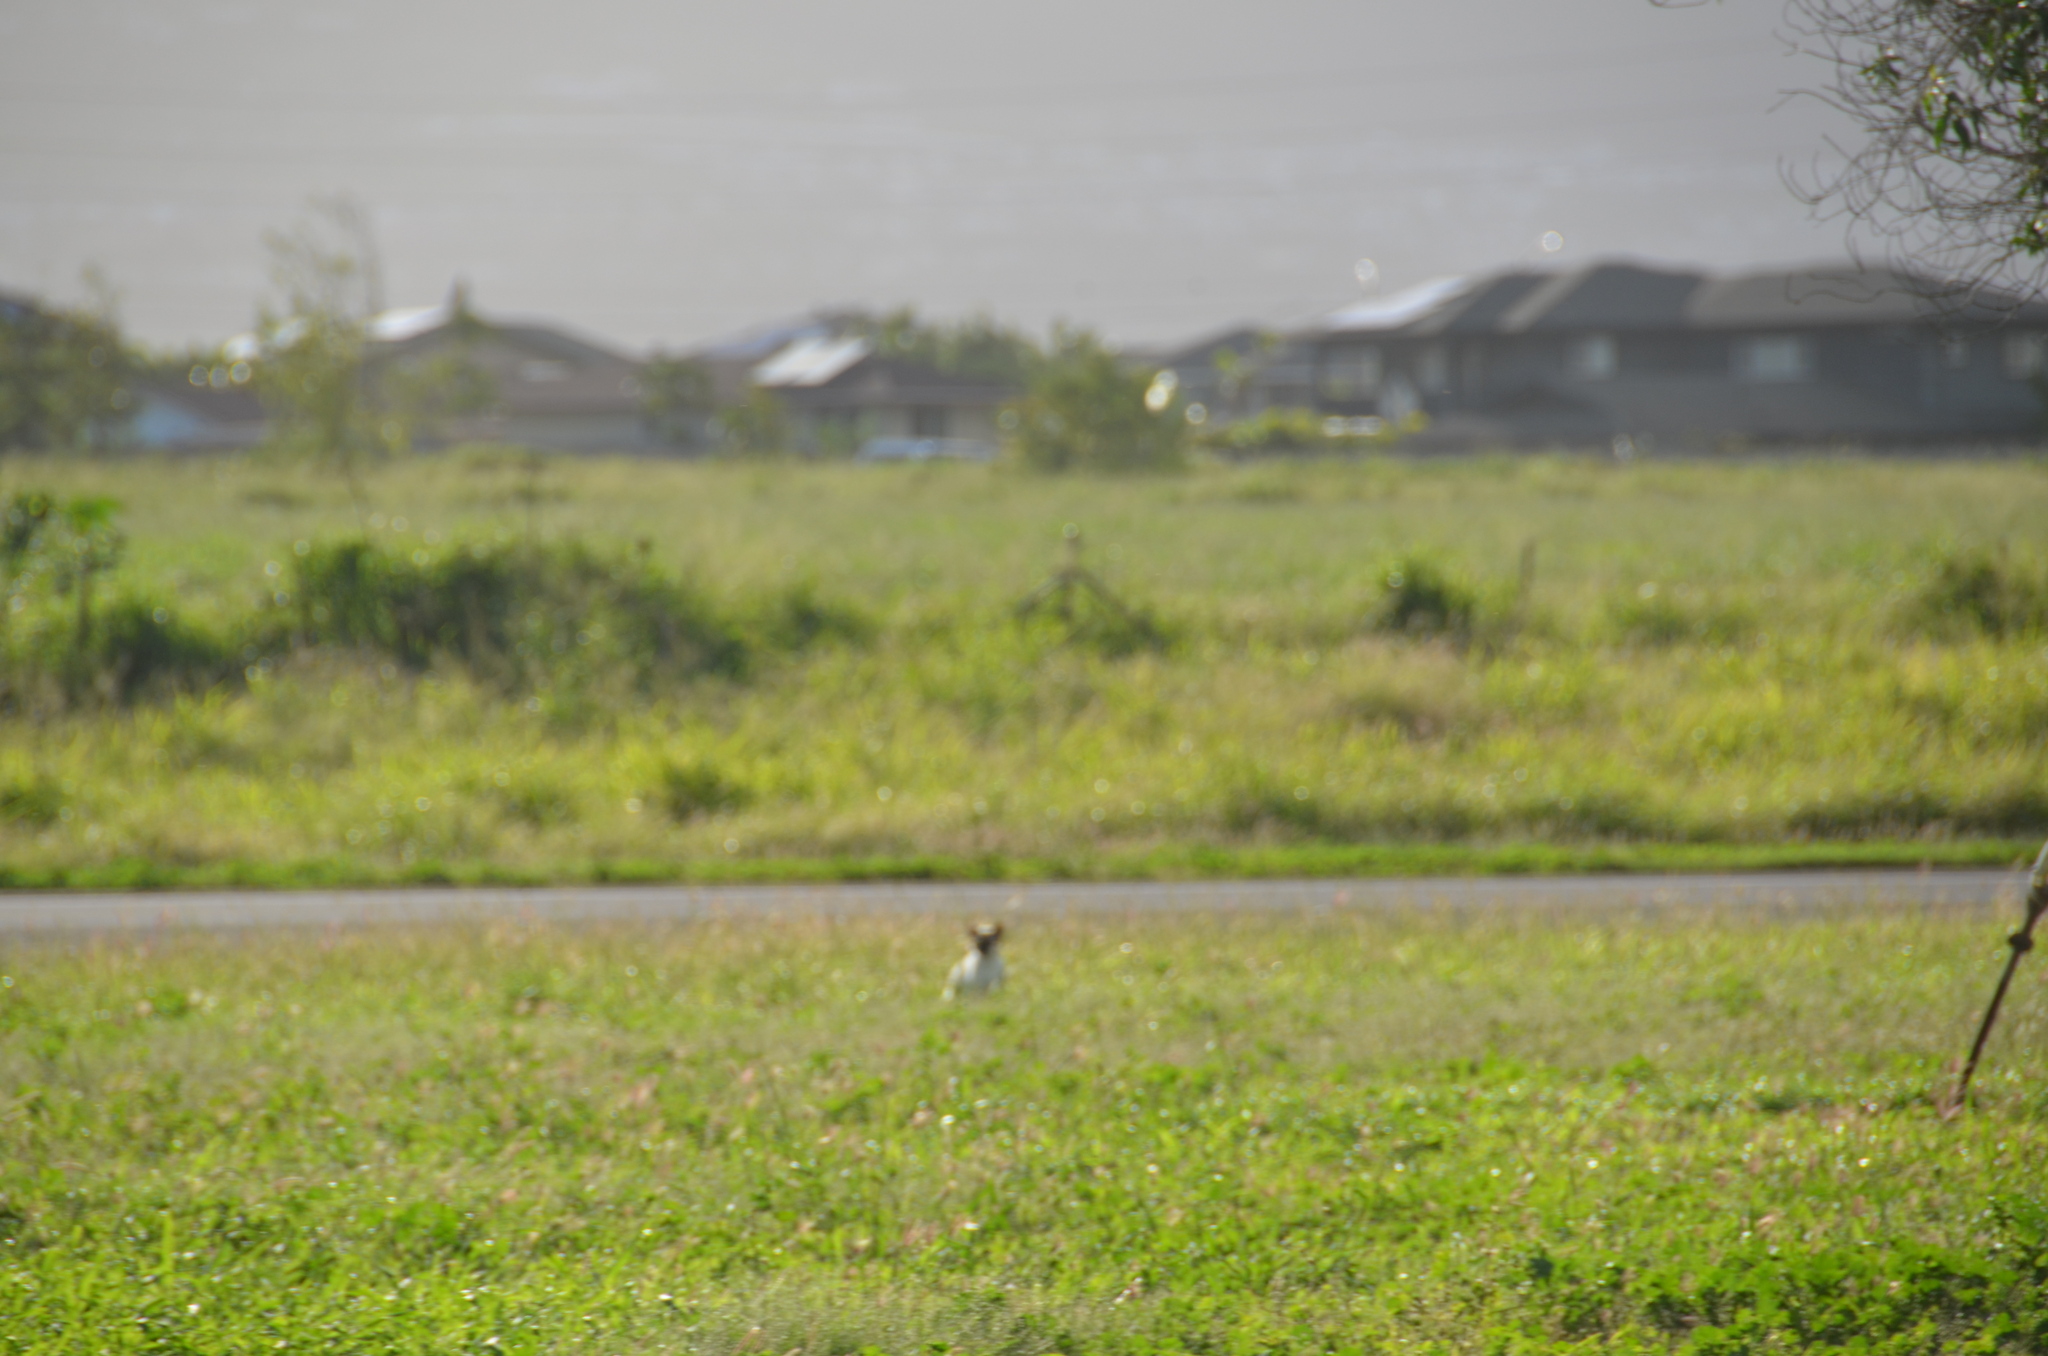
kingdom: Animalia
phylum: Chordata
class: Mammalia
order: Carnivora
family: Felidae
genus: Felis
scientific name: Felis catus
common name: Domestic cat
